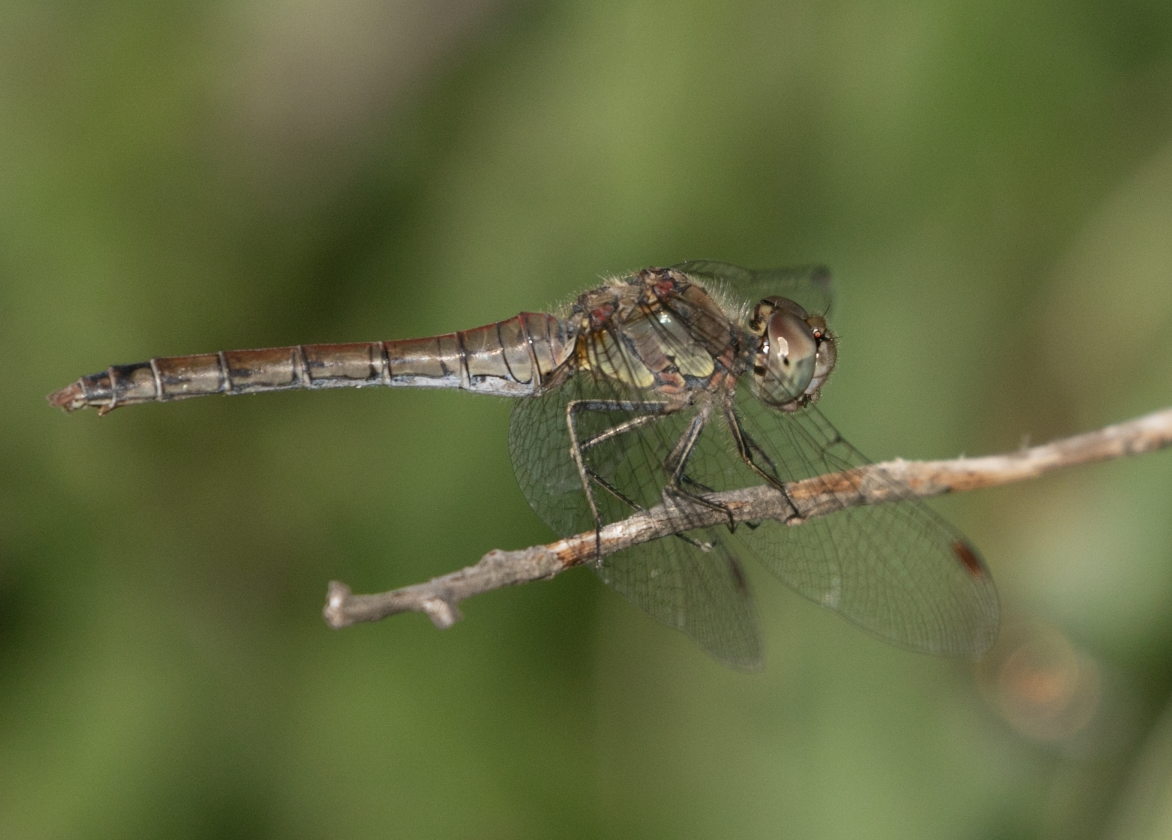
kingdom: Animalia
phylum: Arthropoda
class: Insecta
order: Odonata
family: Libellulidae
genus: Sympetrum
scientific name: Sympetrum striolatum
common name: Common darter
